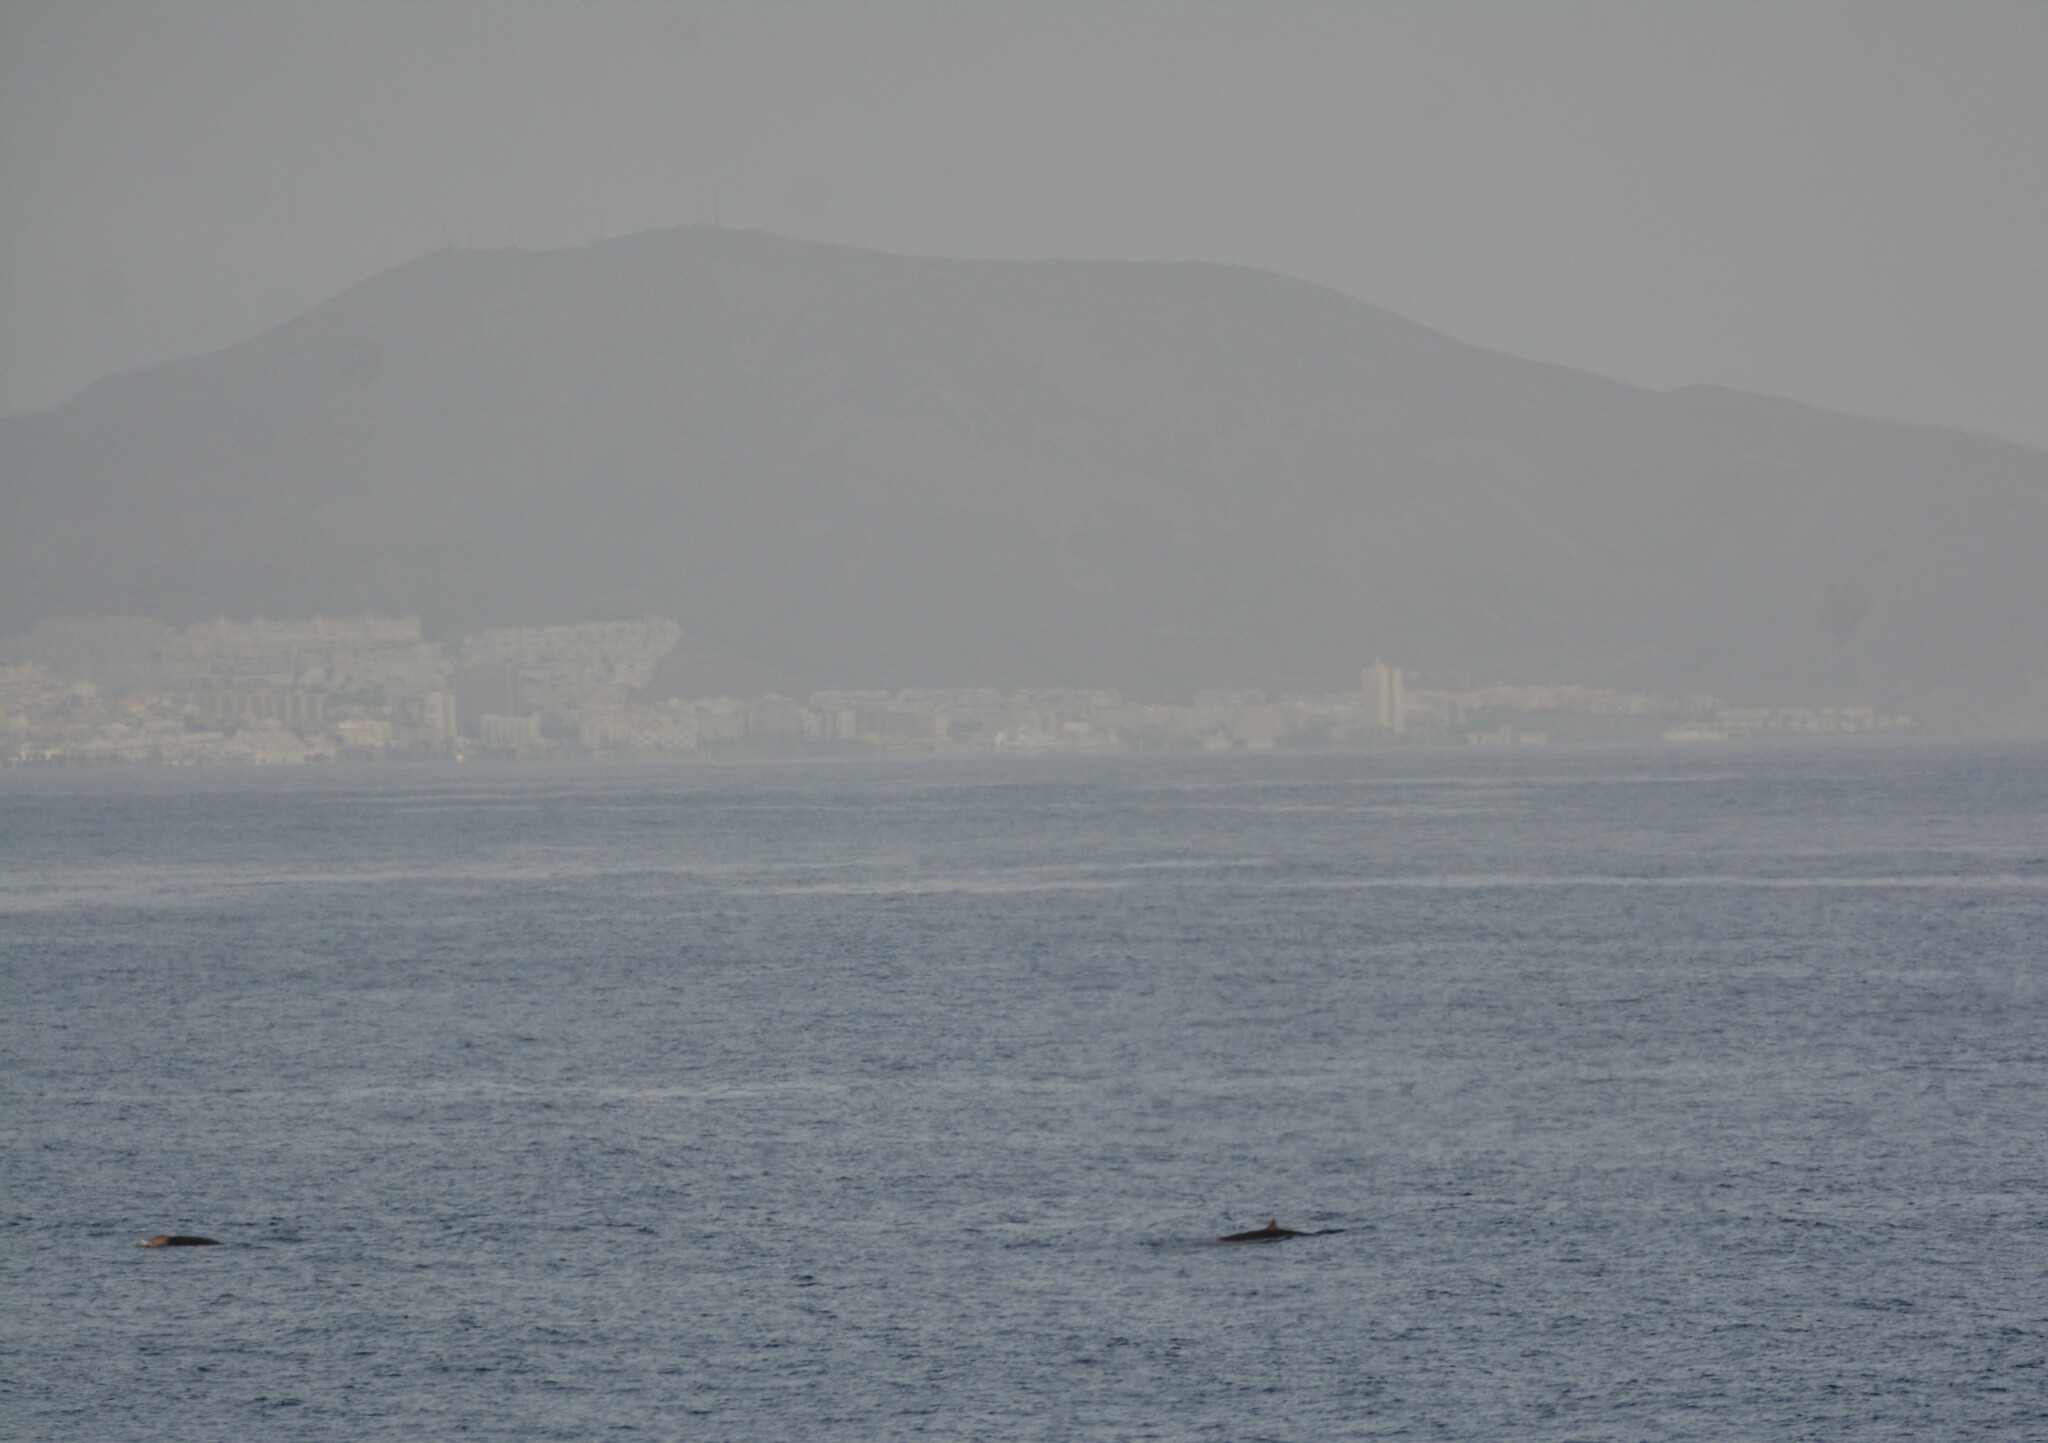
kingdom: Animalia
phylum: Chordata
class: Mammalia
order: Cetacea
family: Hyperoodontidae
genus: Ziphius
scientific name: Ziphius cavirostris
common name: Cuvier's beaked whale
